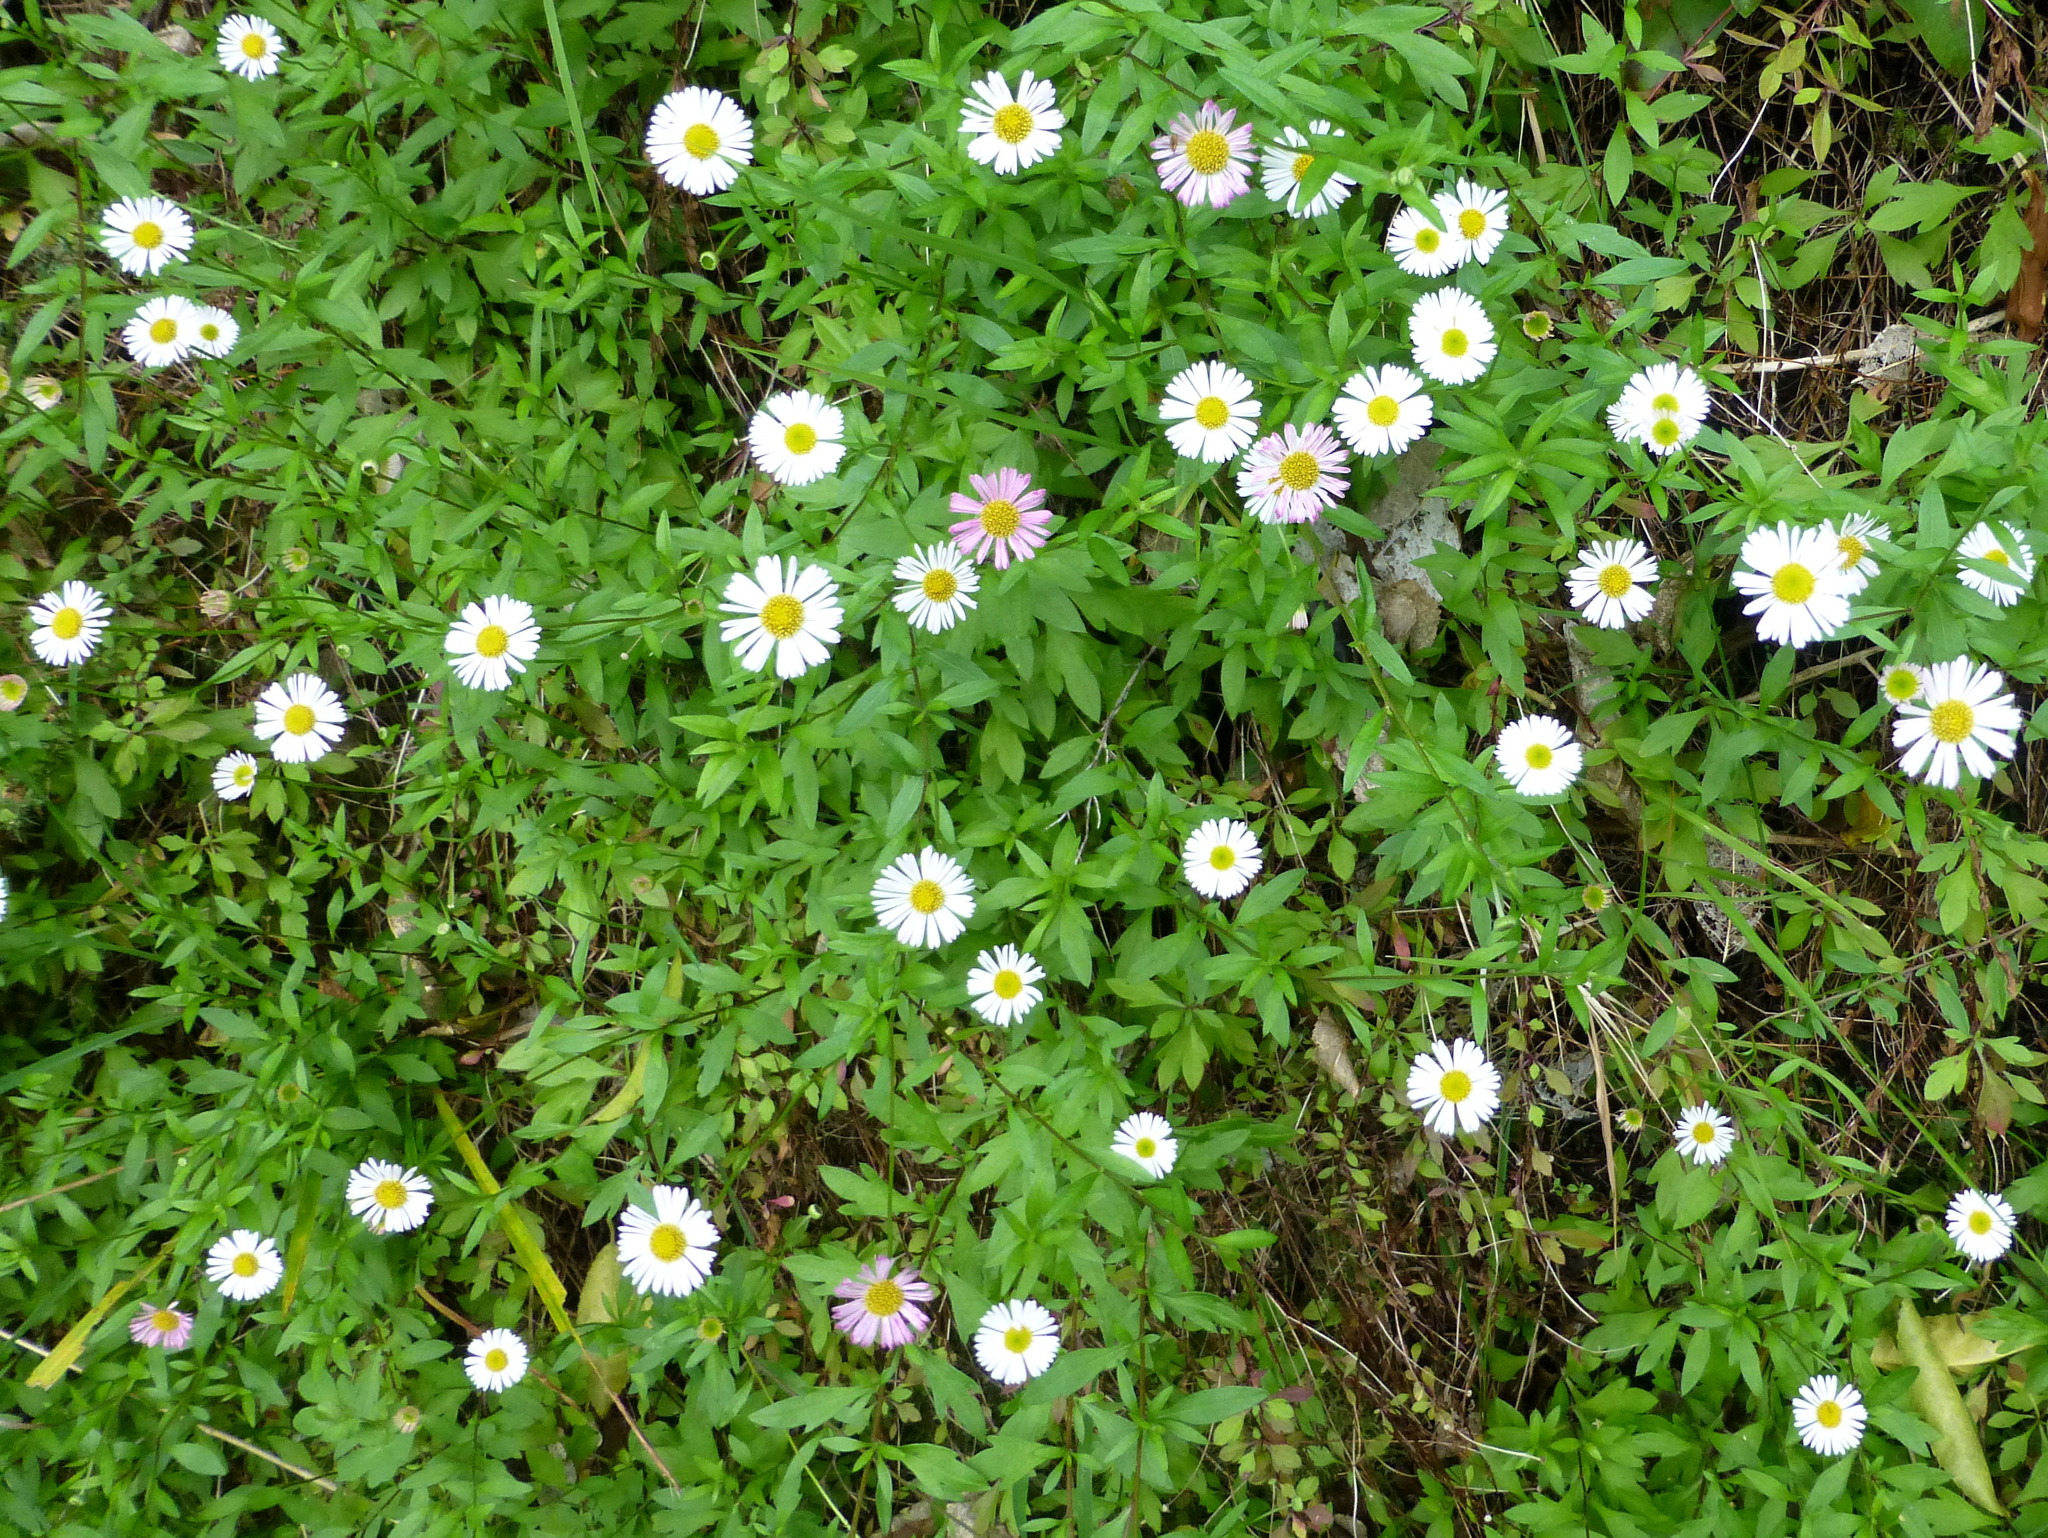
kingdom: Plantae
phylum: Tracheophyta
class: Magnoliopsida
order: Asterales
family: Asteraceae
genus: Erigeron
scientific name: Erigeron karvinskianus
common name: Mexican fleabane
